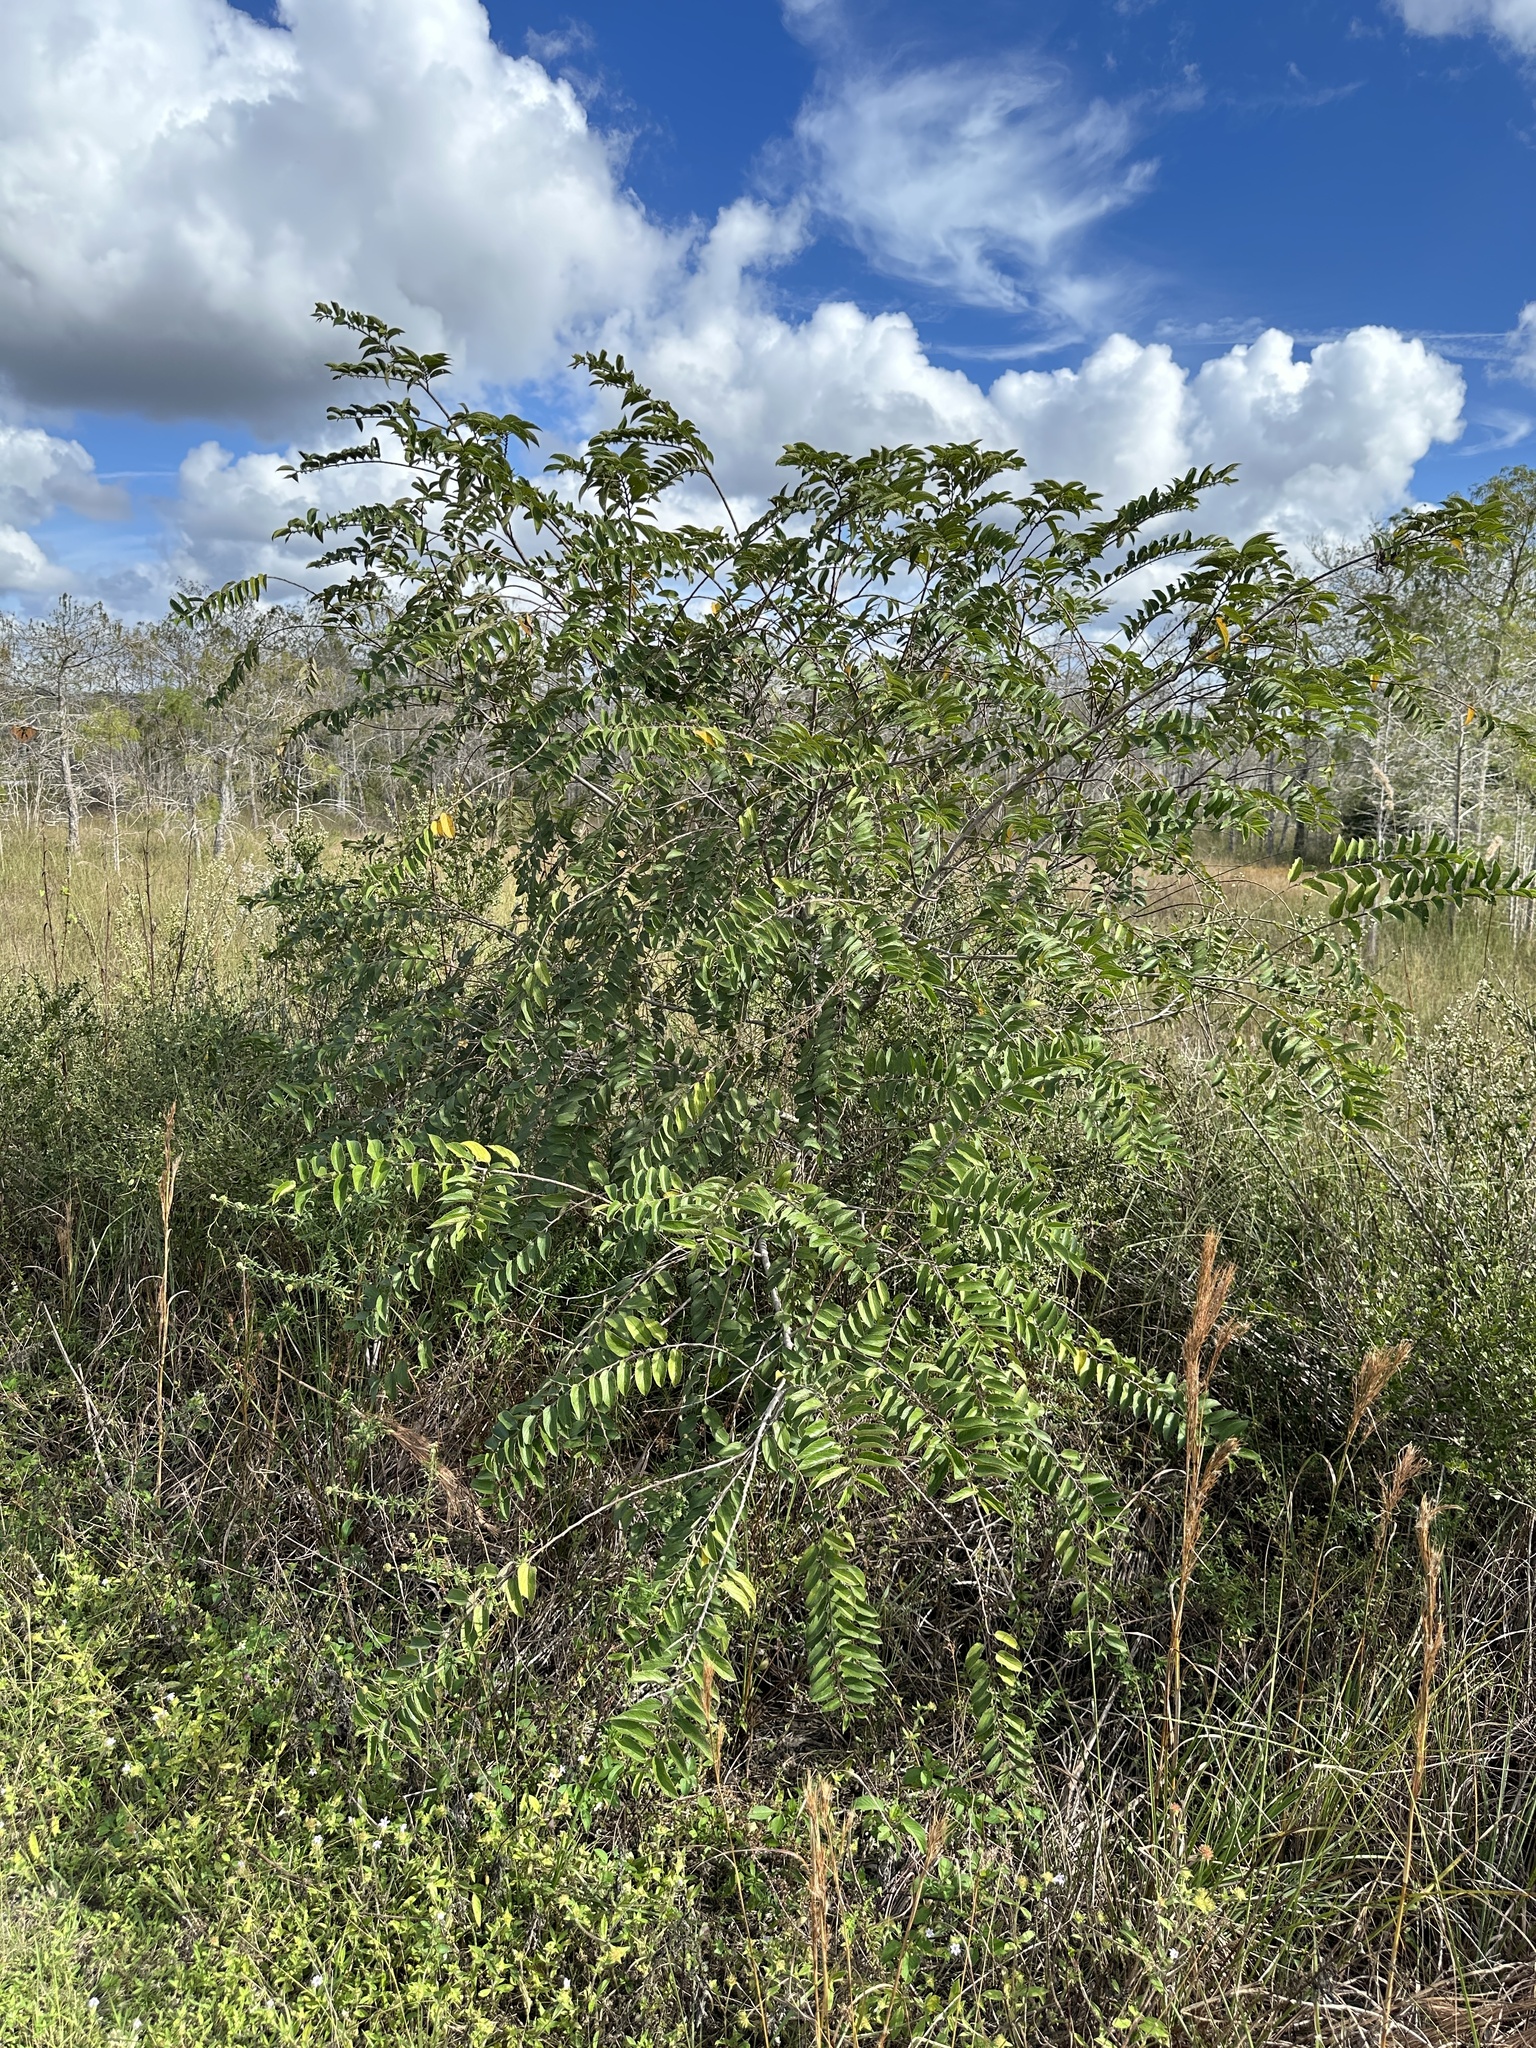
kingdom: Plantae
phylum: Tracheophyta
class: Magnoliopsida
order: Rosales
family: Cannabaceae
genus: Trema
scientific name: Trema micranthum
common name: Jamaican nettletree
